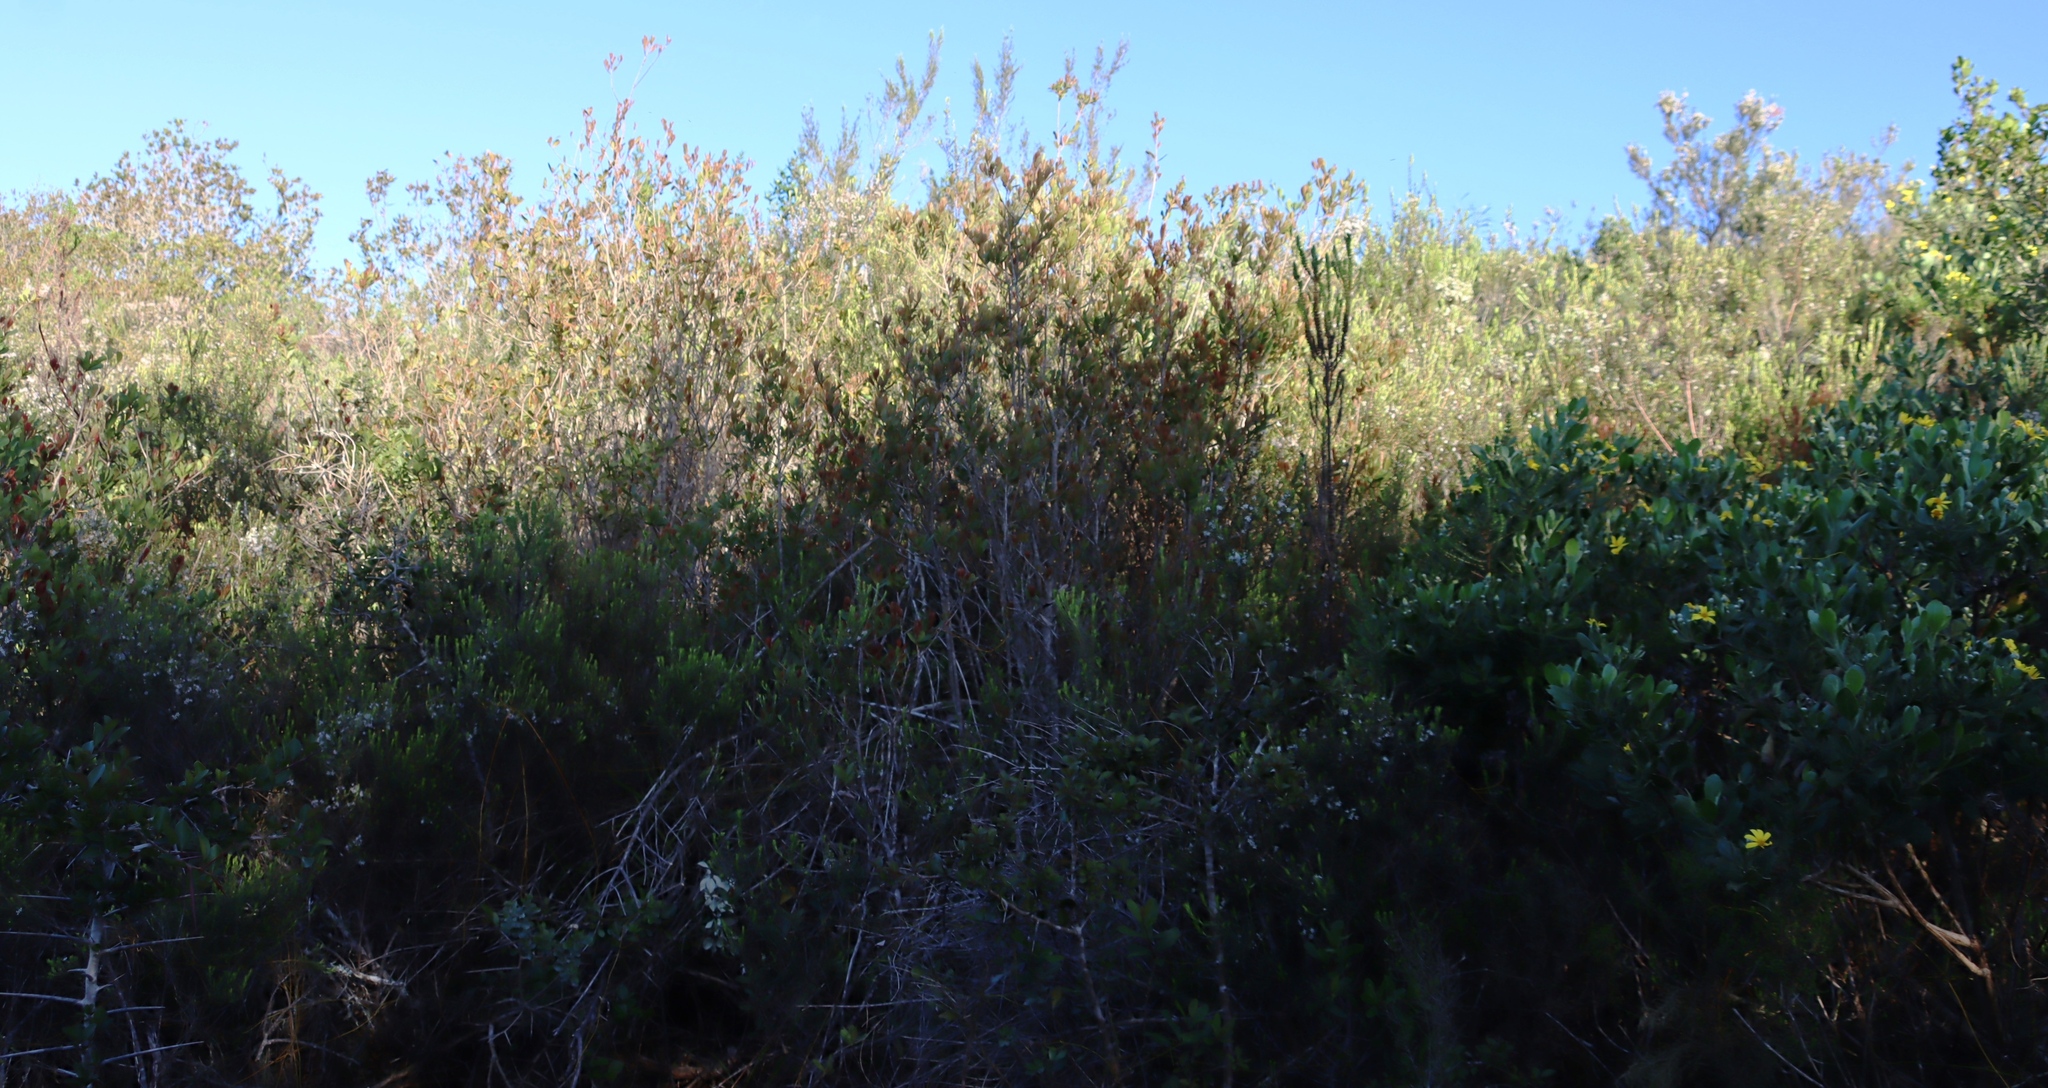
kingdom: Plantae
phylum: Tracheophyta
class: Magnoliopsida
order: Sapindales
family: Rutaceae
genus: Agathosma
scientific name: Agathosma ovata
